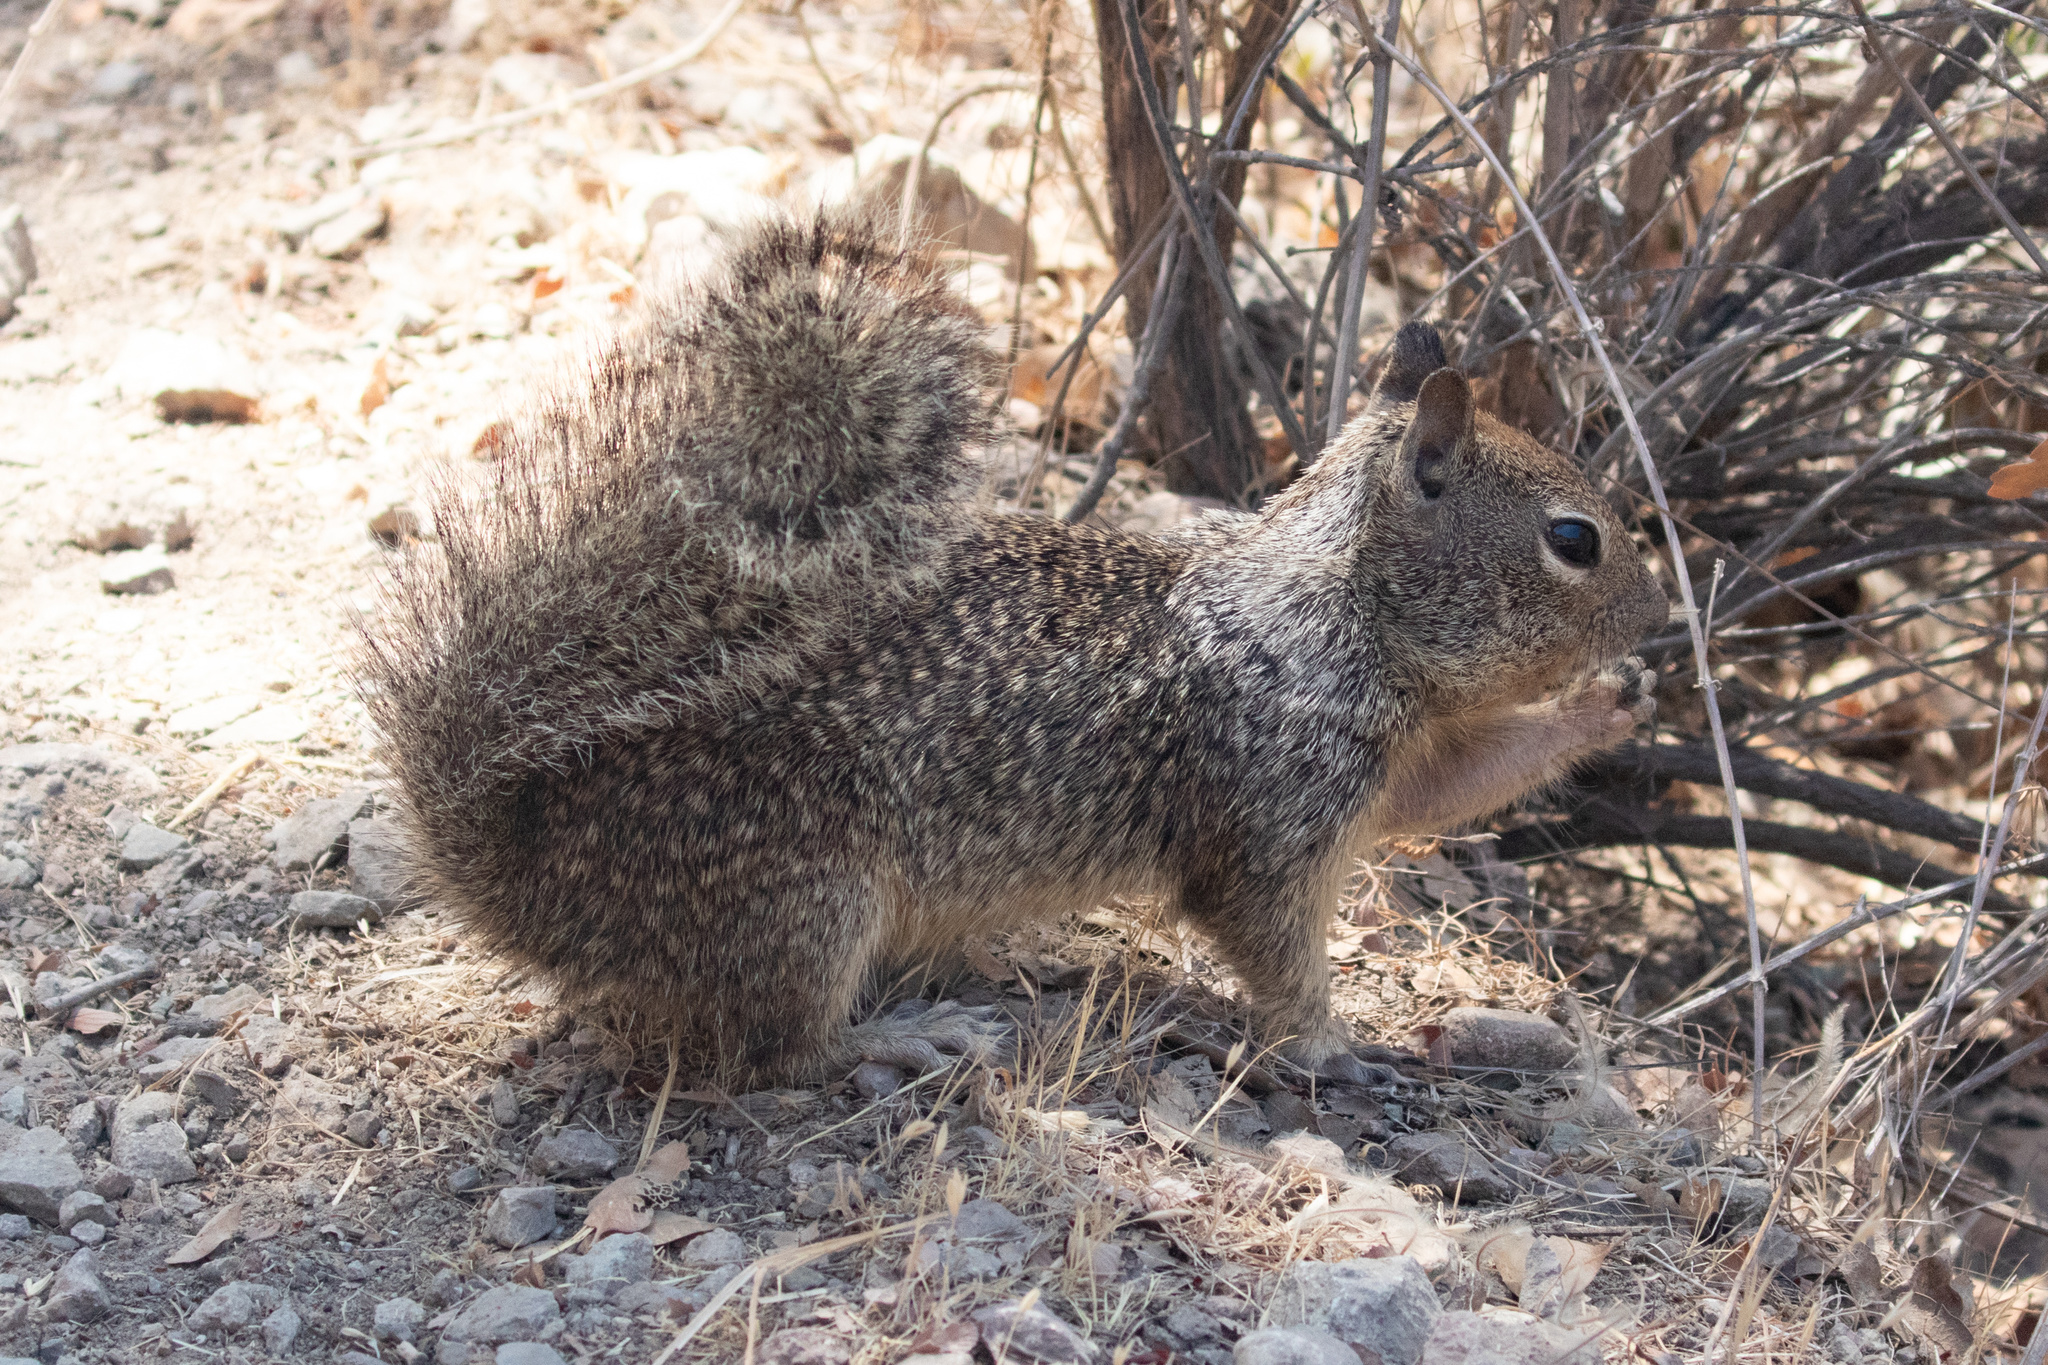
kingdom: Animalia
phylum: Chordata
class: Mammalia
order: Rodentia
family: Sciuridae
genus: Otospermophilus
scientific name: Otospermophilus beecheyi
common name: California ground squirrel
